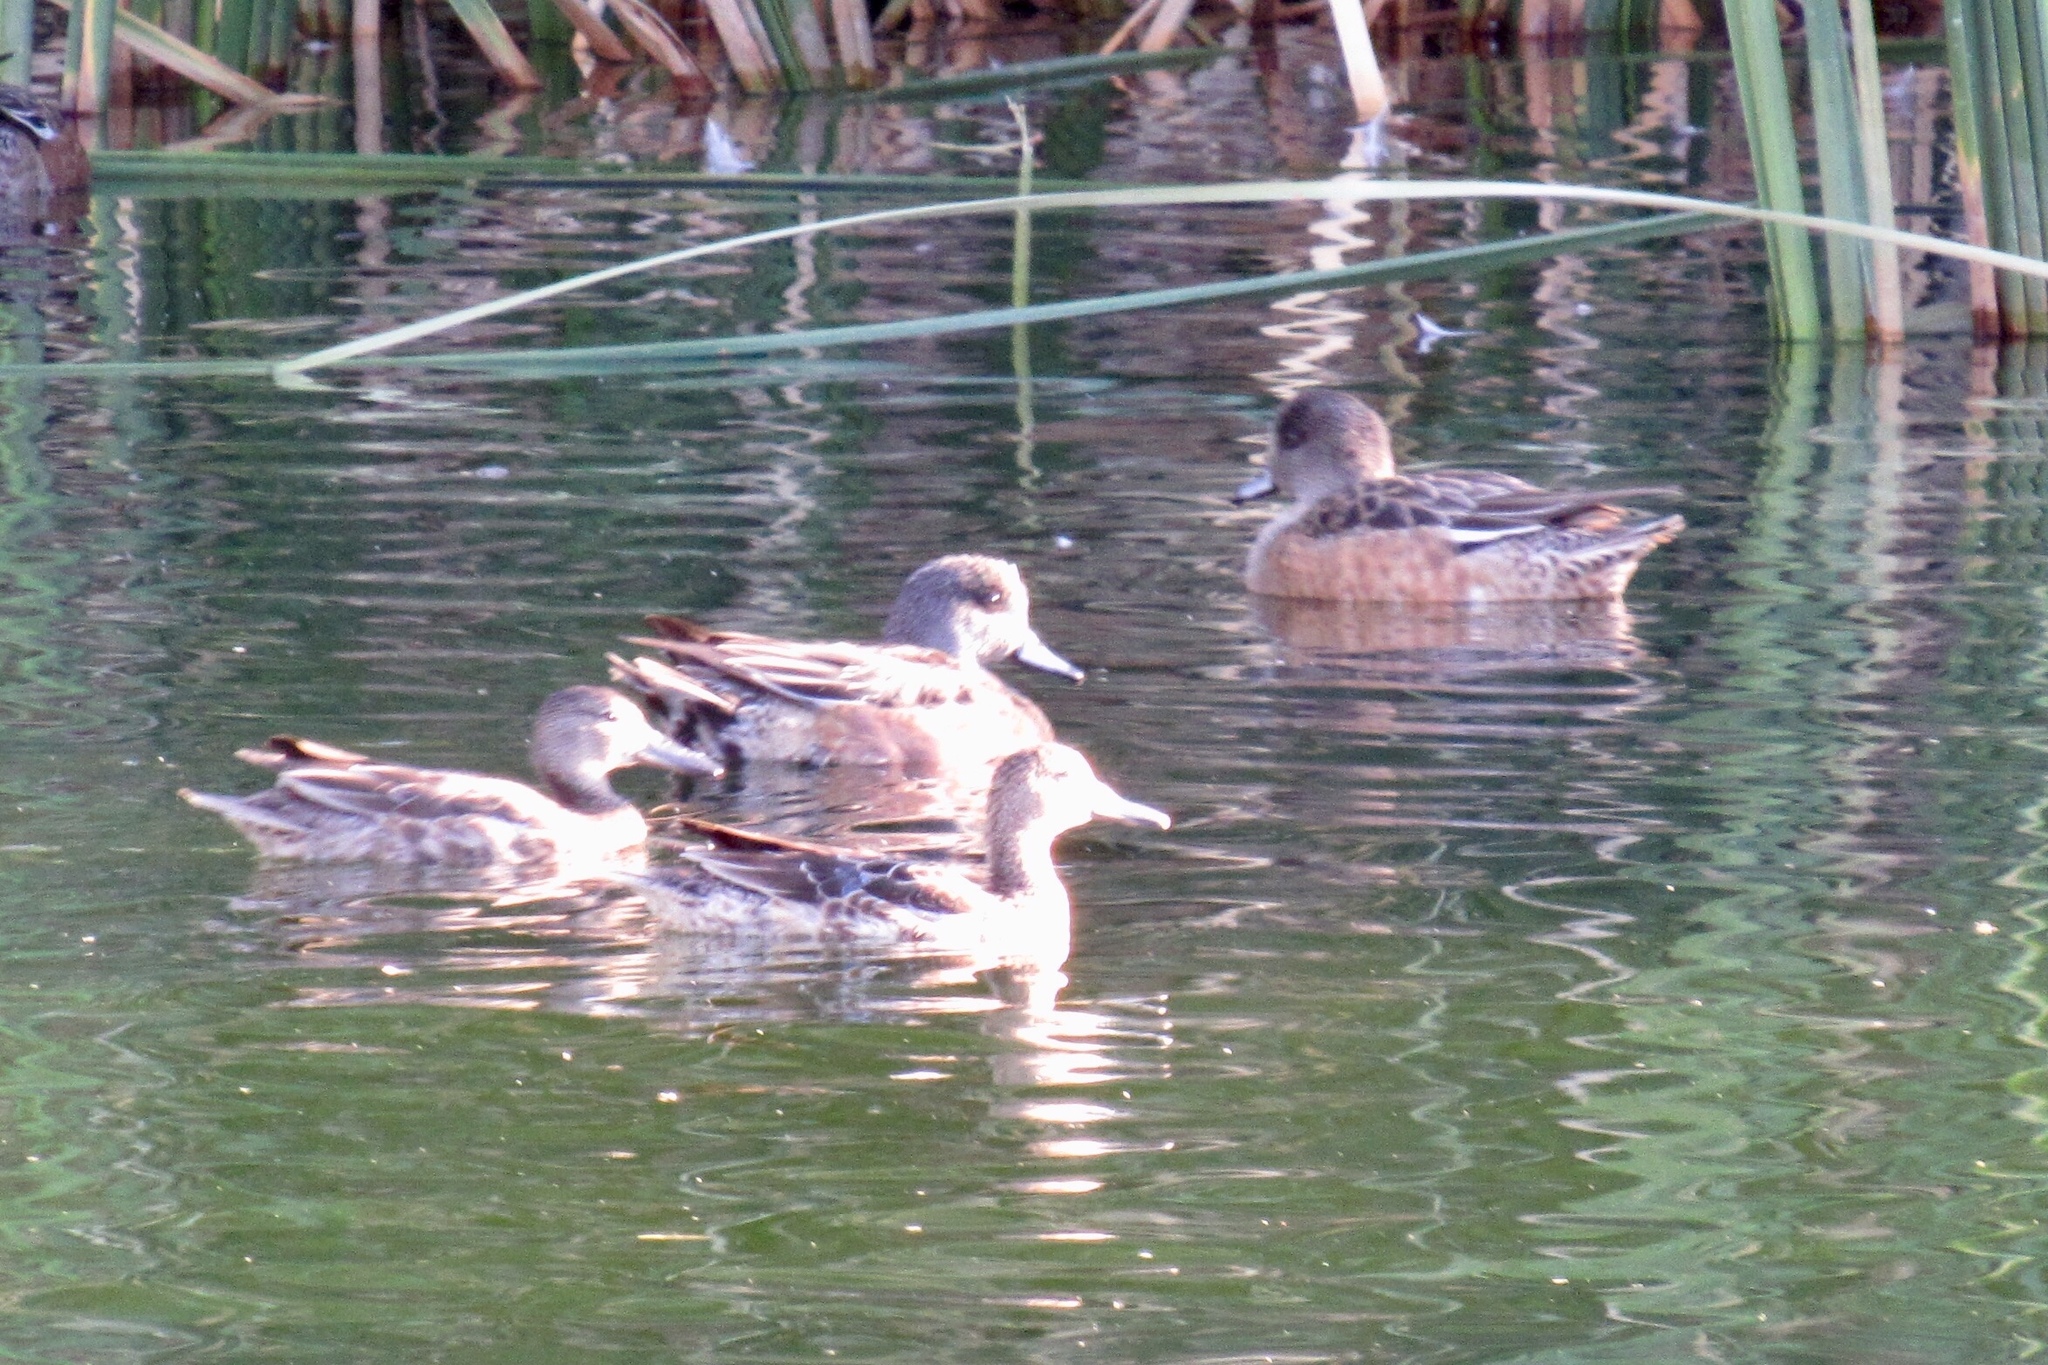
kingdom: Animalia
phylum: Chordata
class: Aves
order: Anseriformes
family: Anatidae
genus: Mareca
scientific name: Mareca americana
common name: American wigeon
